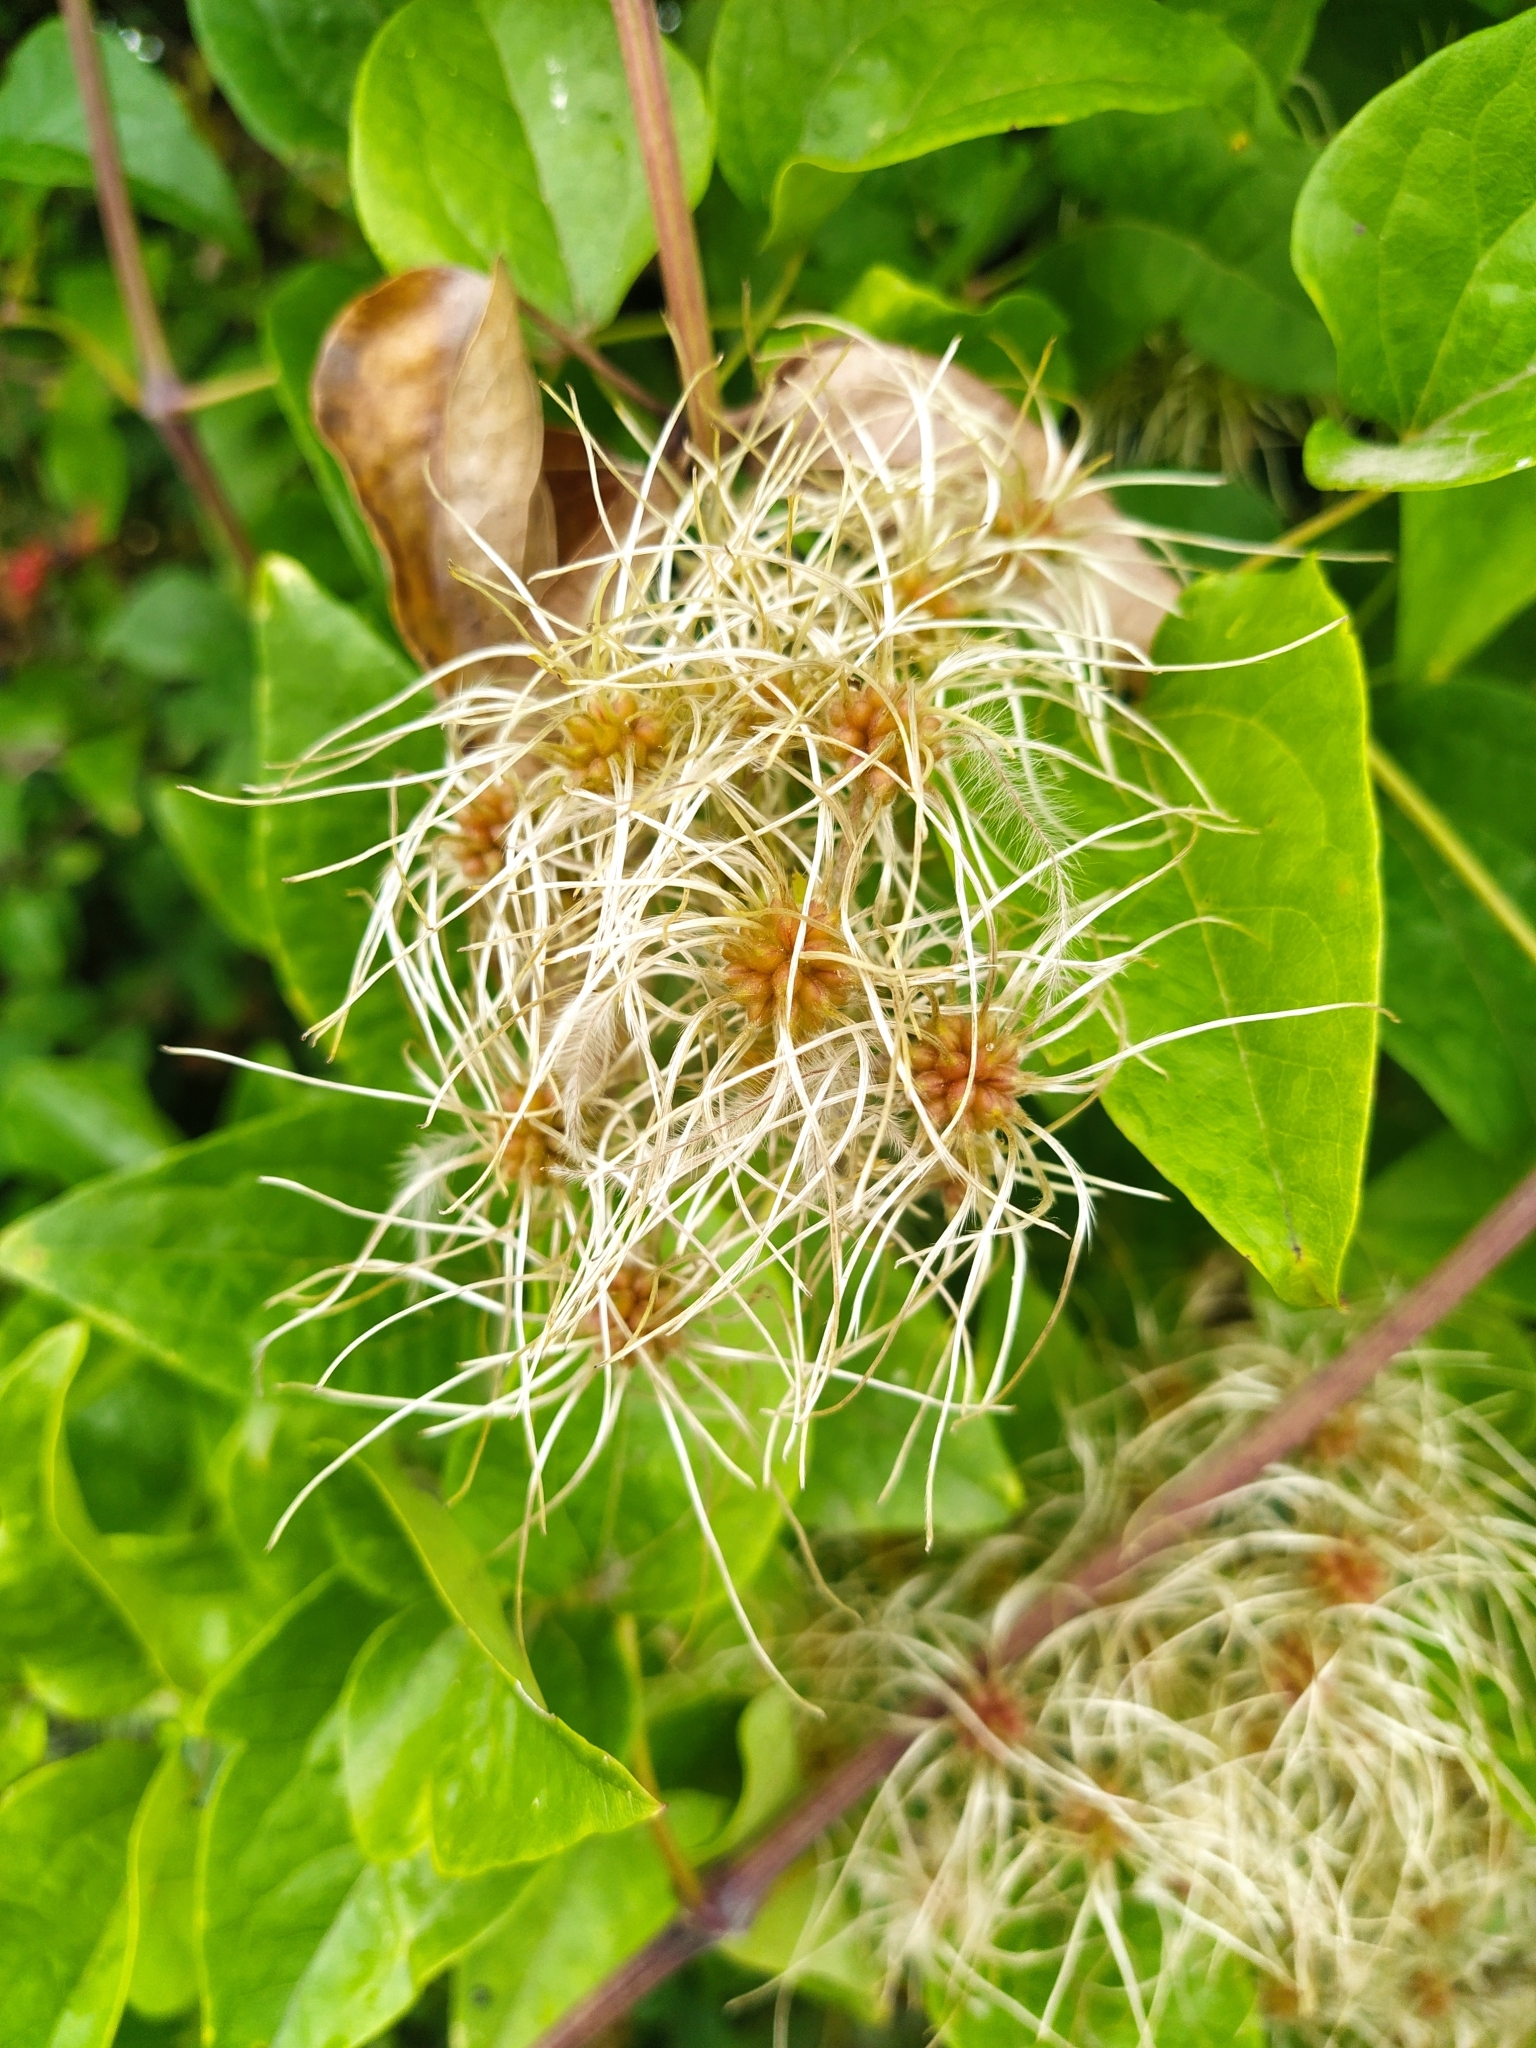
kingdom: Plantae
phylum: Tracheophyta
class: Magnoliopsida
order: Ranunculales
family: Ranunculaceae
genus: Clematis
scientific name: Clematis vitalba
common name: Evergreen clematis
